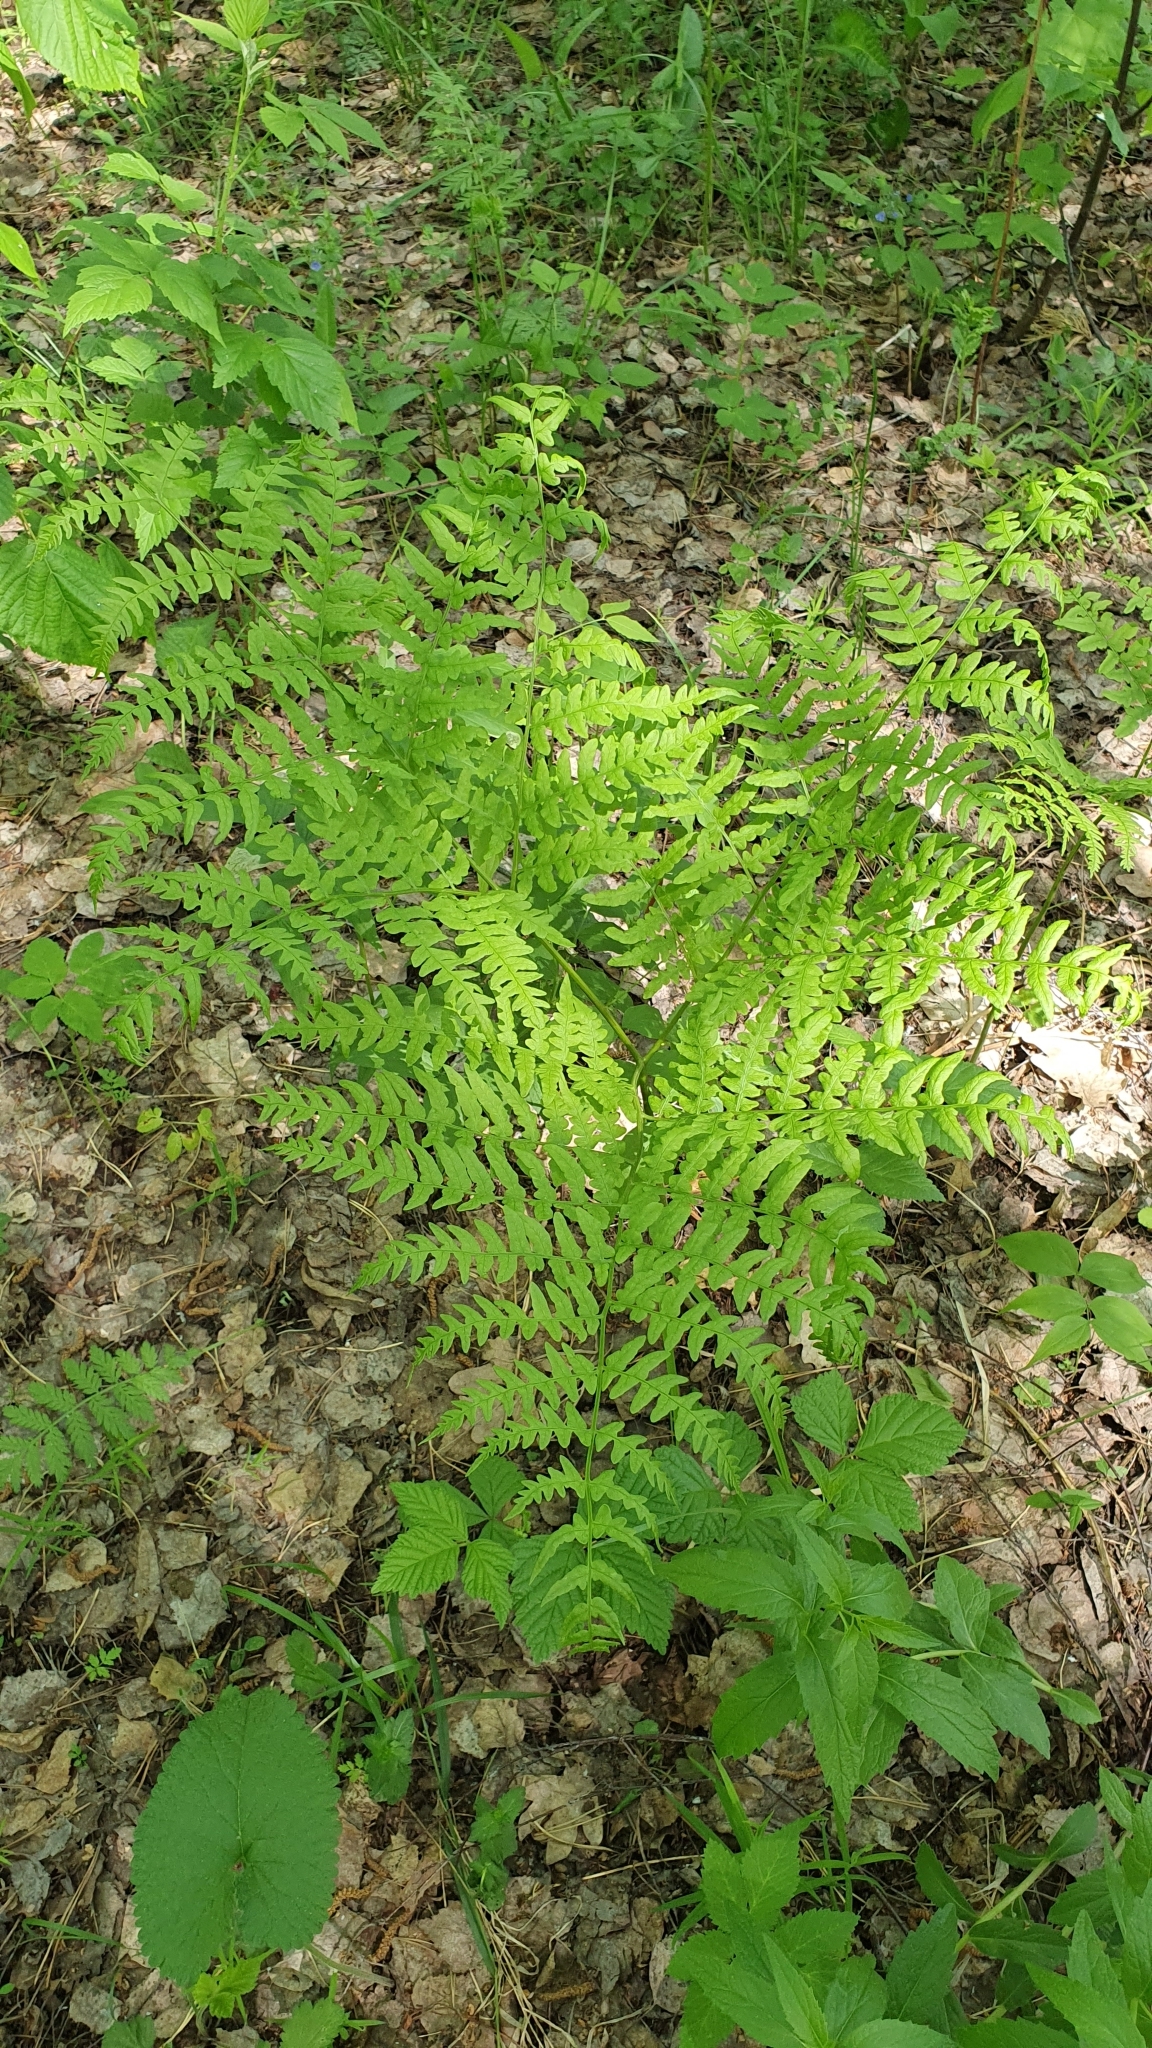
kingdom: Plantae
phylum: Tracheophyta
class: Polypodiopsida
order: Polypodiales
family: Dennstaedtiaceae
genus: Pteridium
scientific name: Pteridium aquilinum
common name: Bracken
